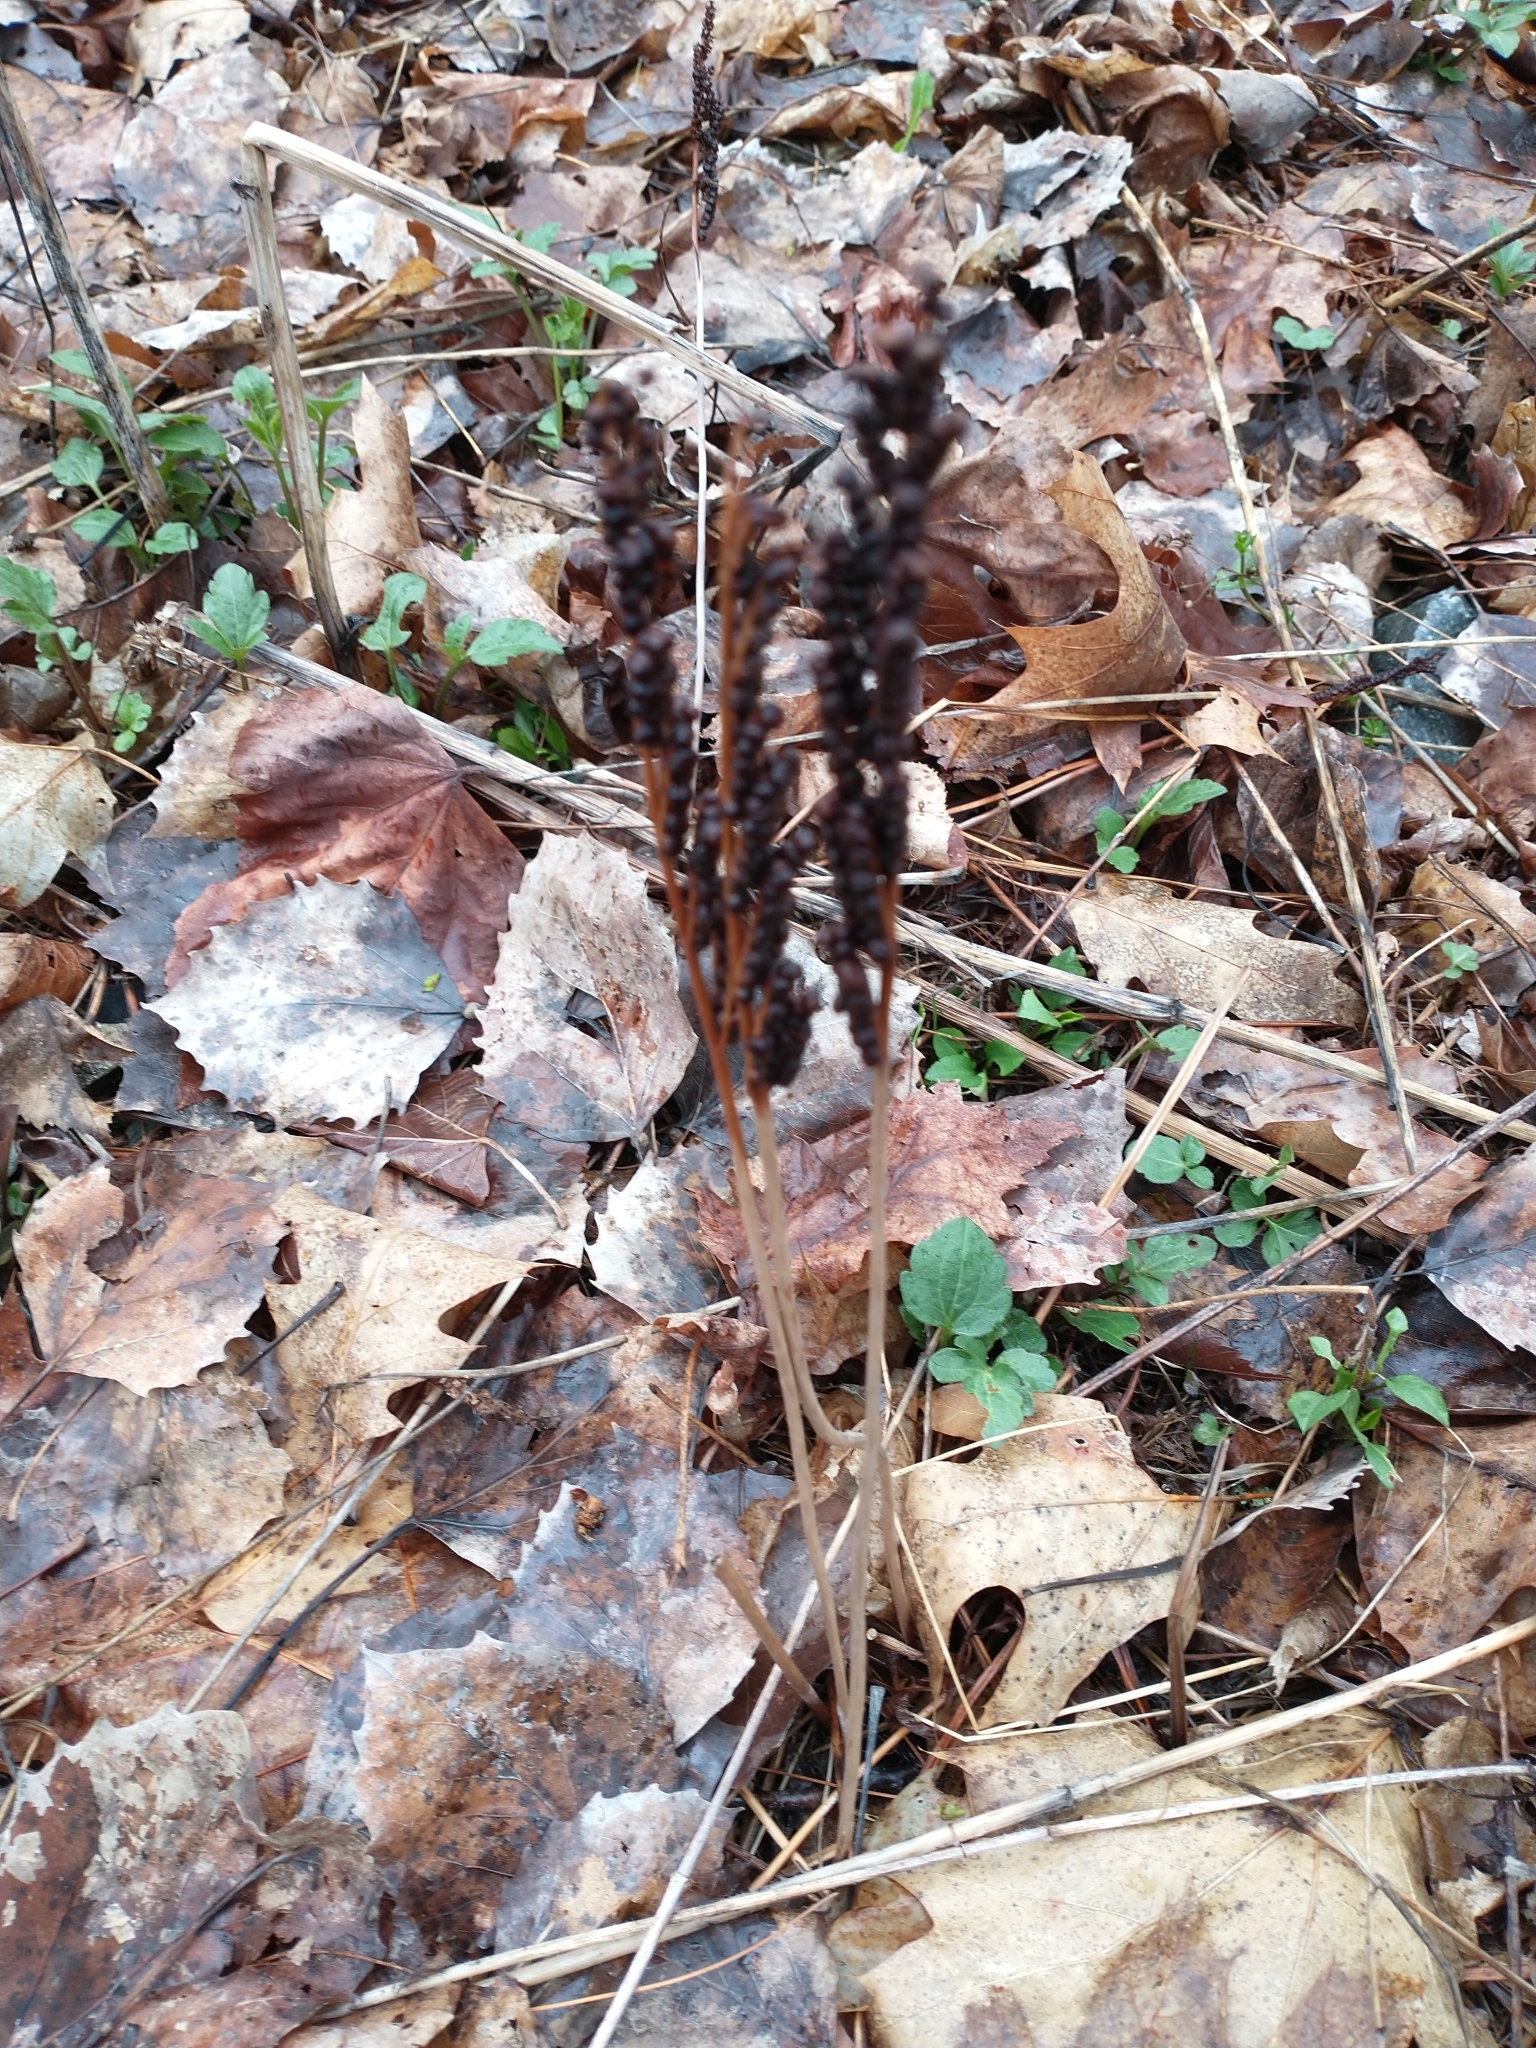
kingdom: Plantae
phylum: Tracheophyta
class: Polypodiopsida
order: Polypodiales
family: Onocleaceae
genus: Onoclea
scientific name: Onoclea sensibilis
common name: Sensitive fern
